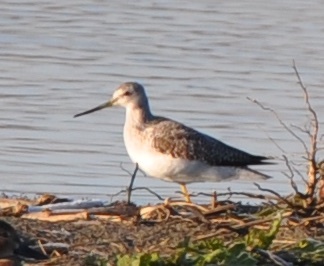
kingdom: Animalia
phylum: Chordata
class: Aves
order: Charadriiformes
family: Scolopacidae
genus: Tringa
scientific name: Tringa melanoleuca
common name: Greater yellowlegs
